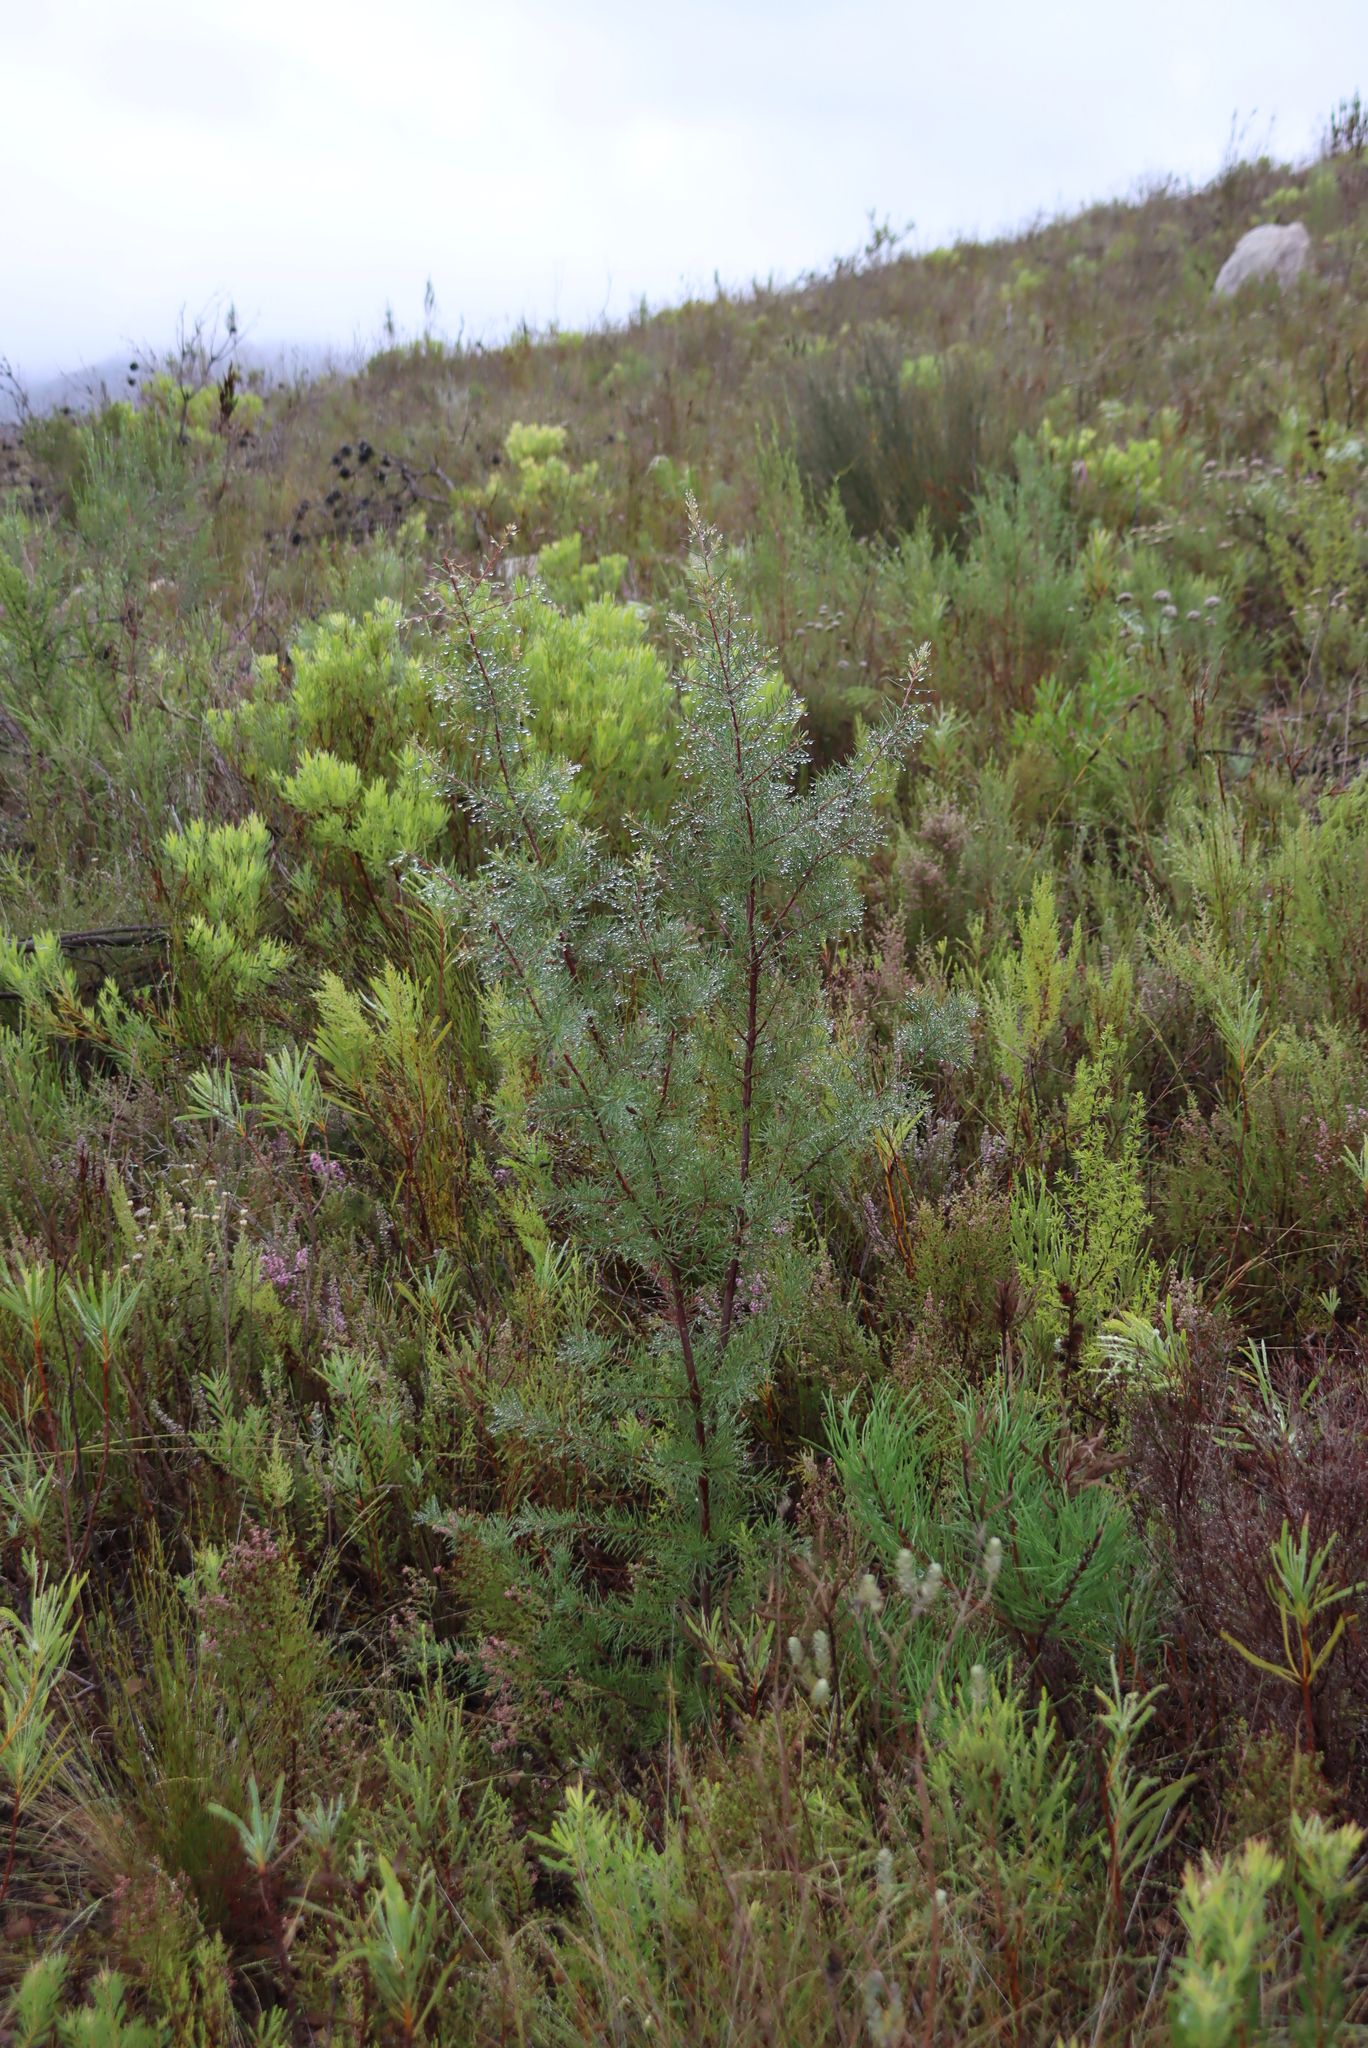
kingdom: Plantae
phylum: Tracheophyta
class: Magnoliopsida
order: Proteales
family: Proteaceae
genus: Hakea
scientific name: Hakea sericea
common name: Needle bush
